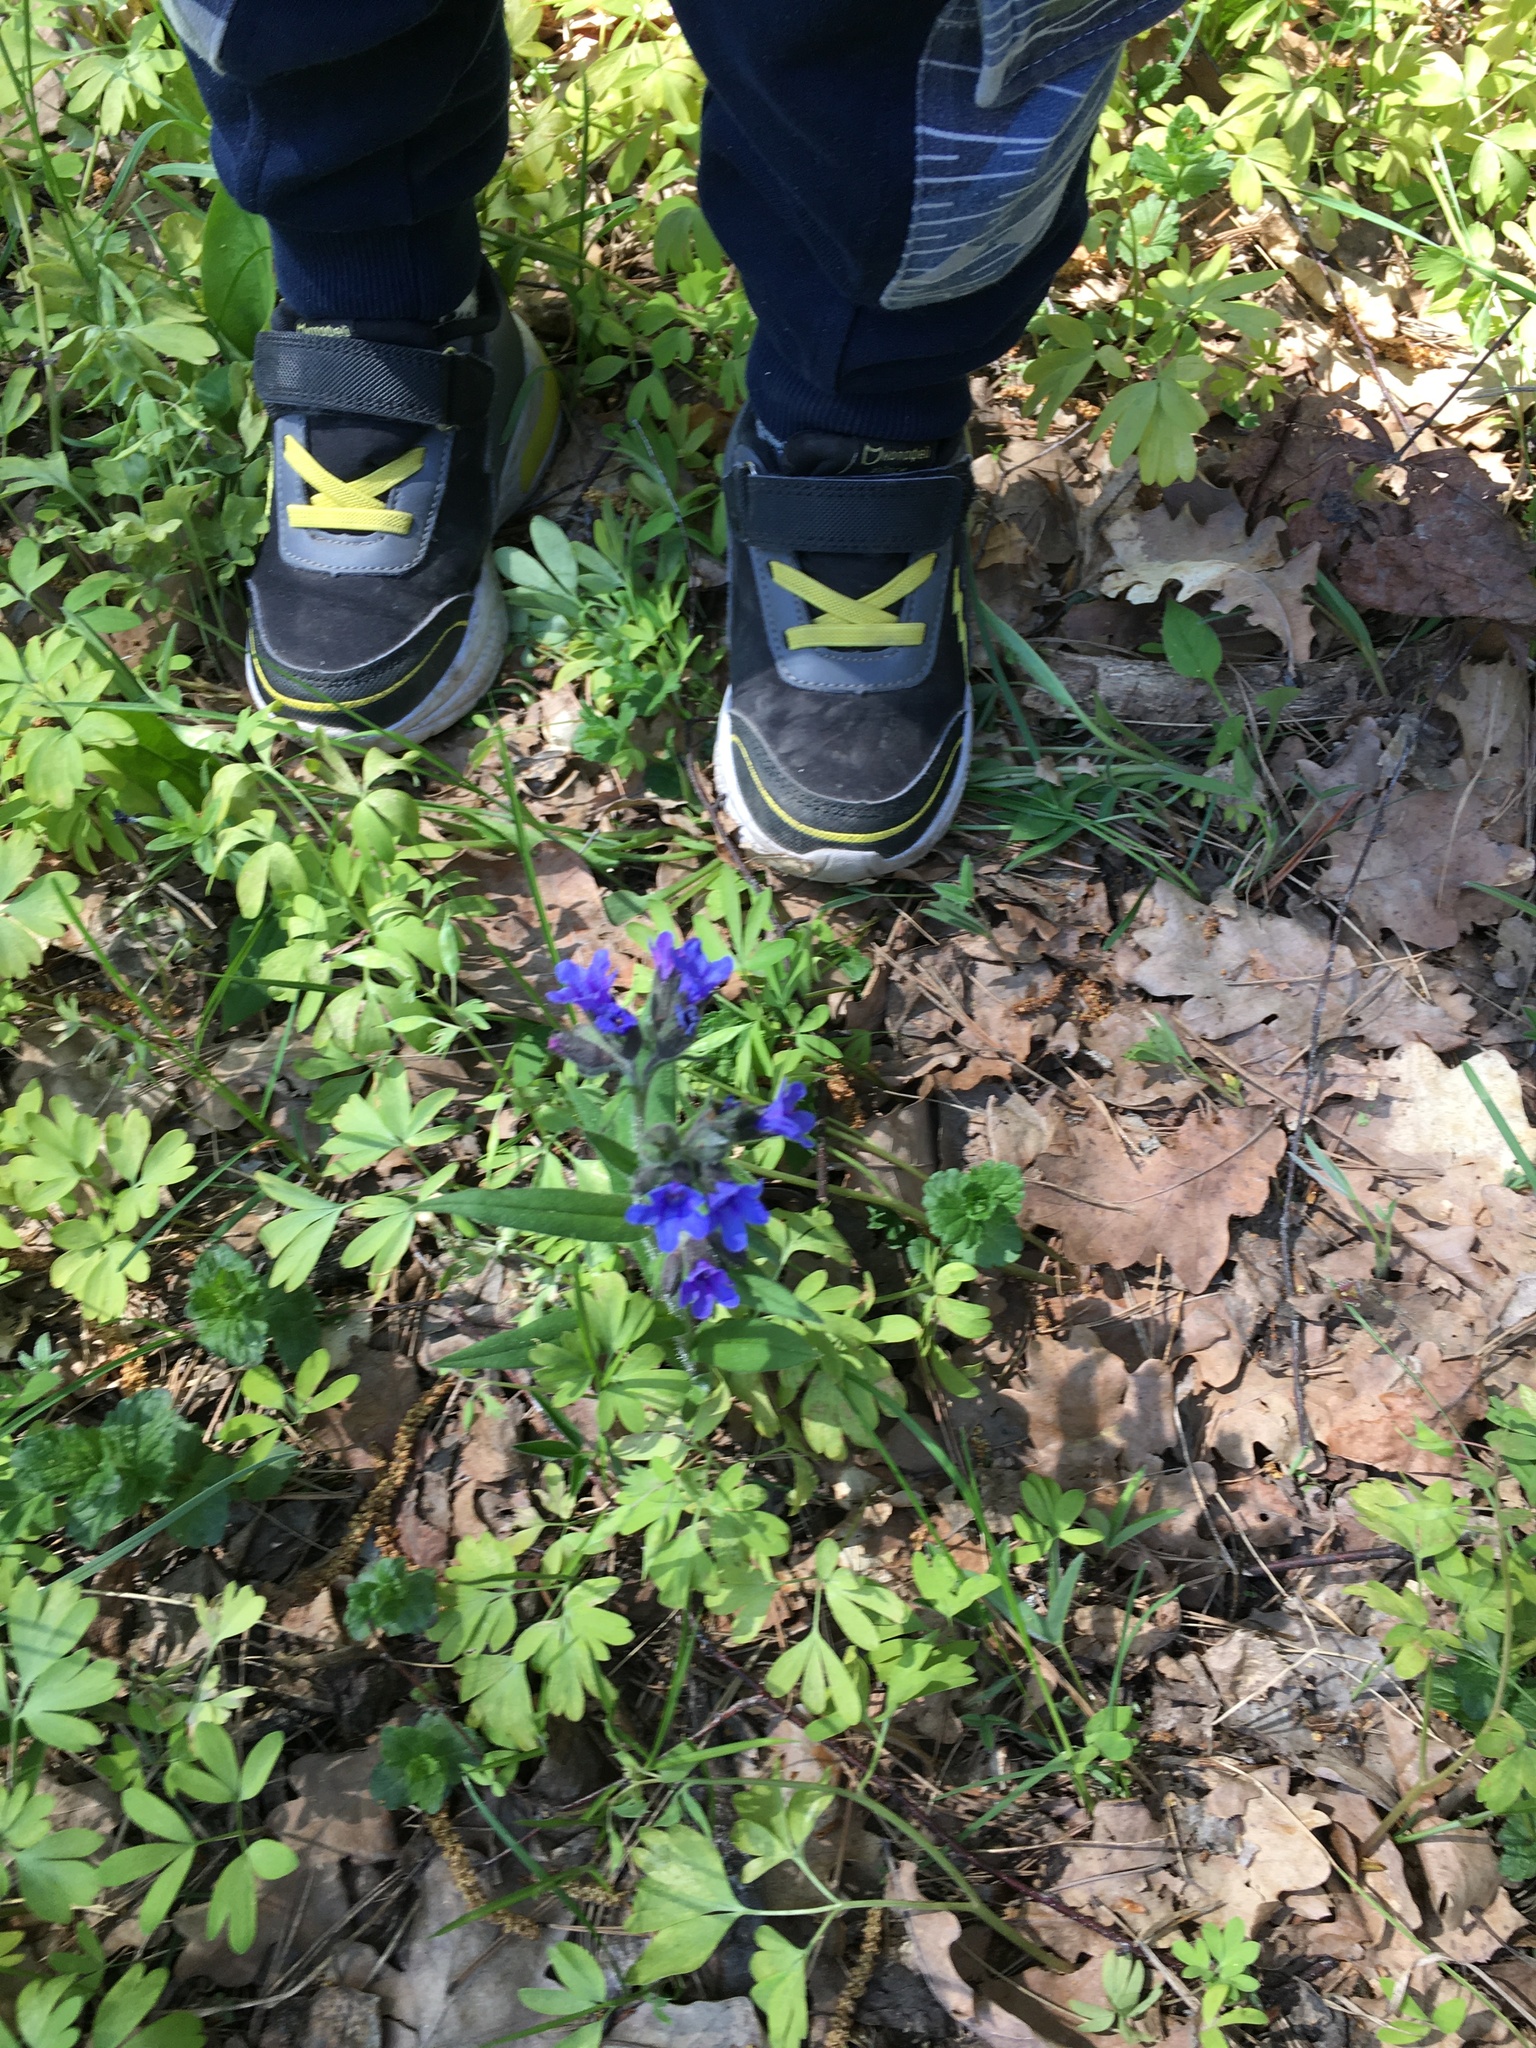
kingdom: Plantae
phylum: Tracheophyta
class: Magnoliopsida
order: Boraginales
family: Boraginaceae
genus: Pulmonaria
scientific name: Pulmonaria angustifolia
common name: Blue cowslip
